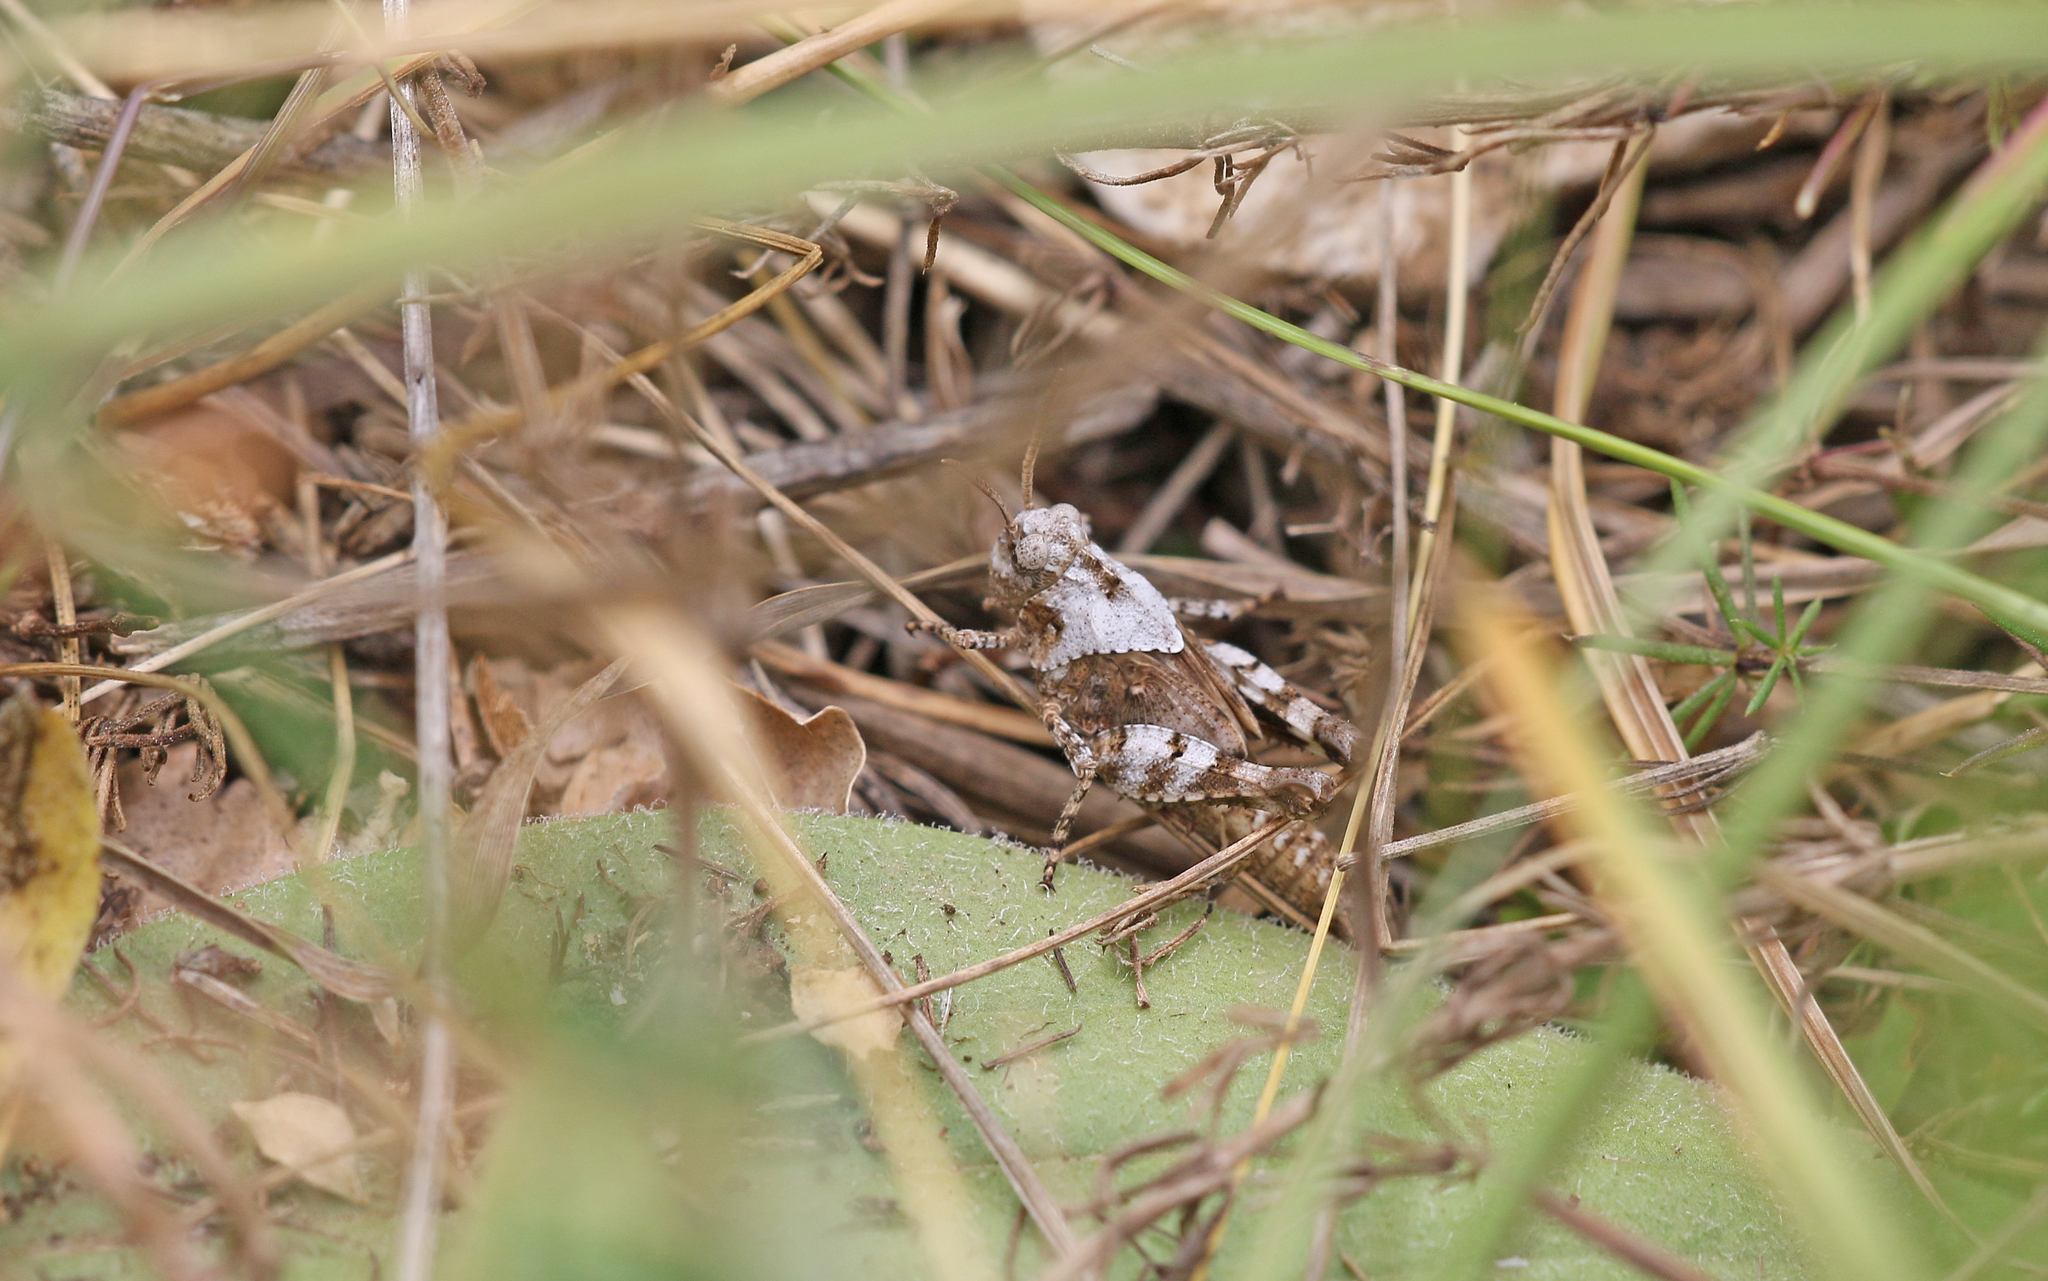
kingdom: Animalia
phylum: Arthropoda
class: Insecta
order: Orthoptera
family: Acrididae
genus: Oedipoda
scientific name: Oedipoda caerulescens
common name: Blue-winged grasshopper
